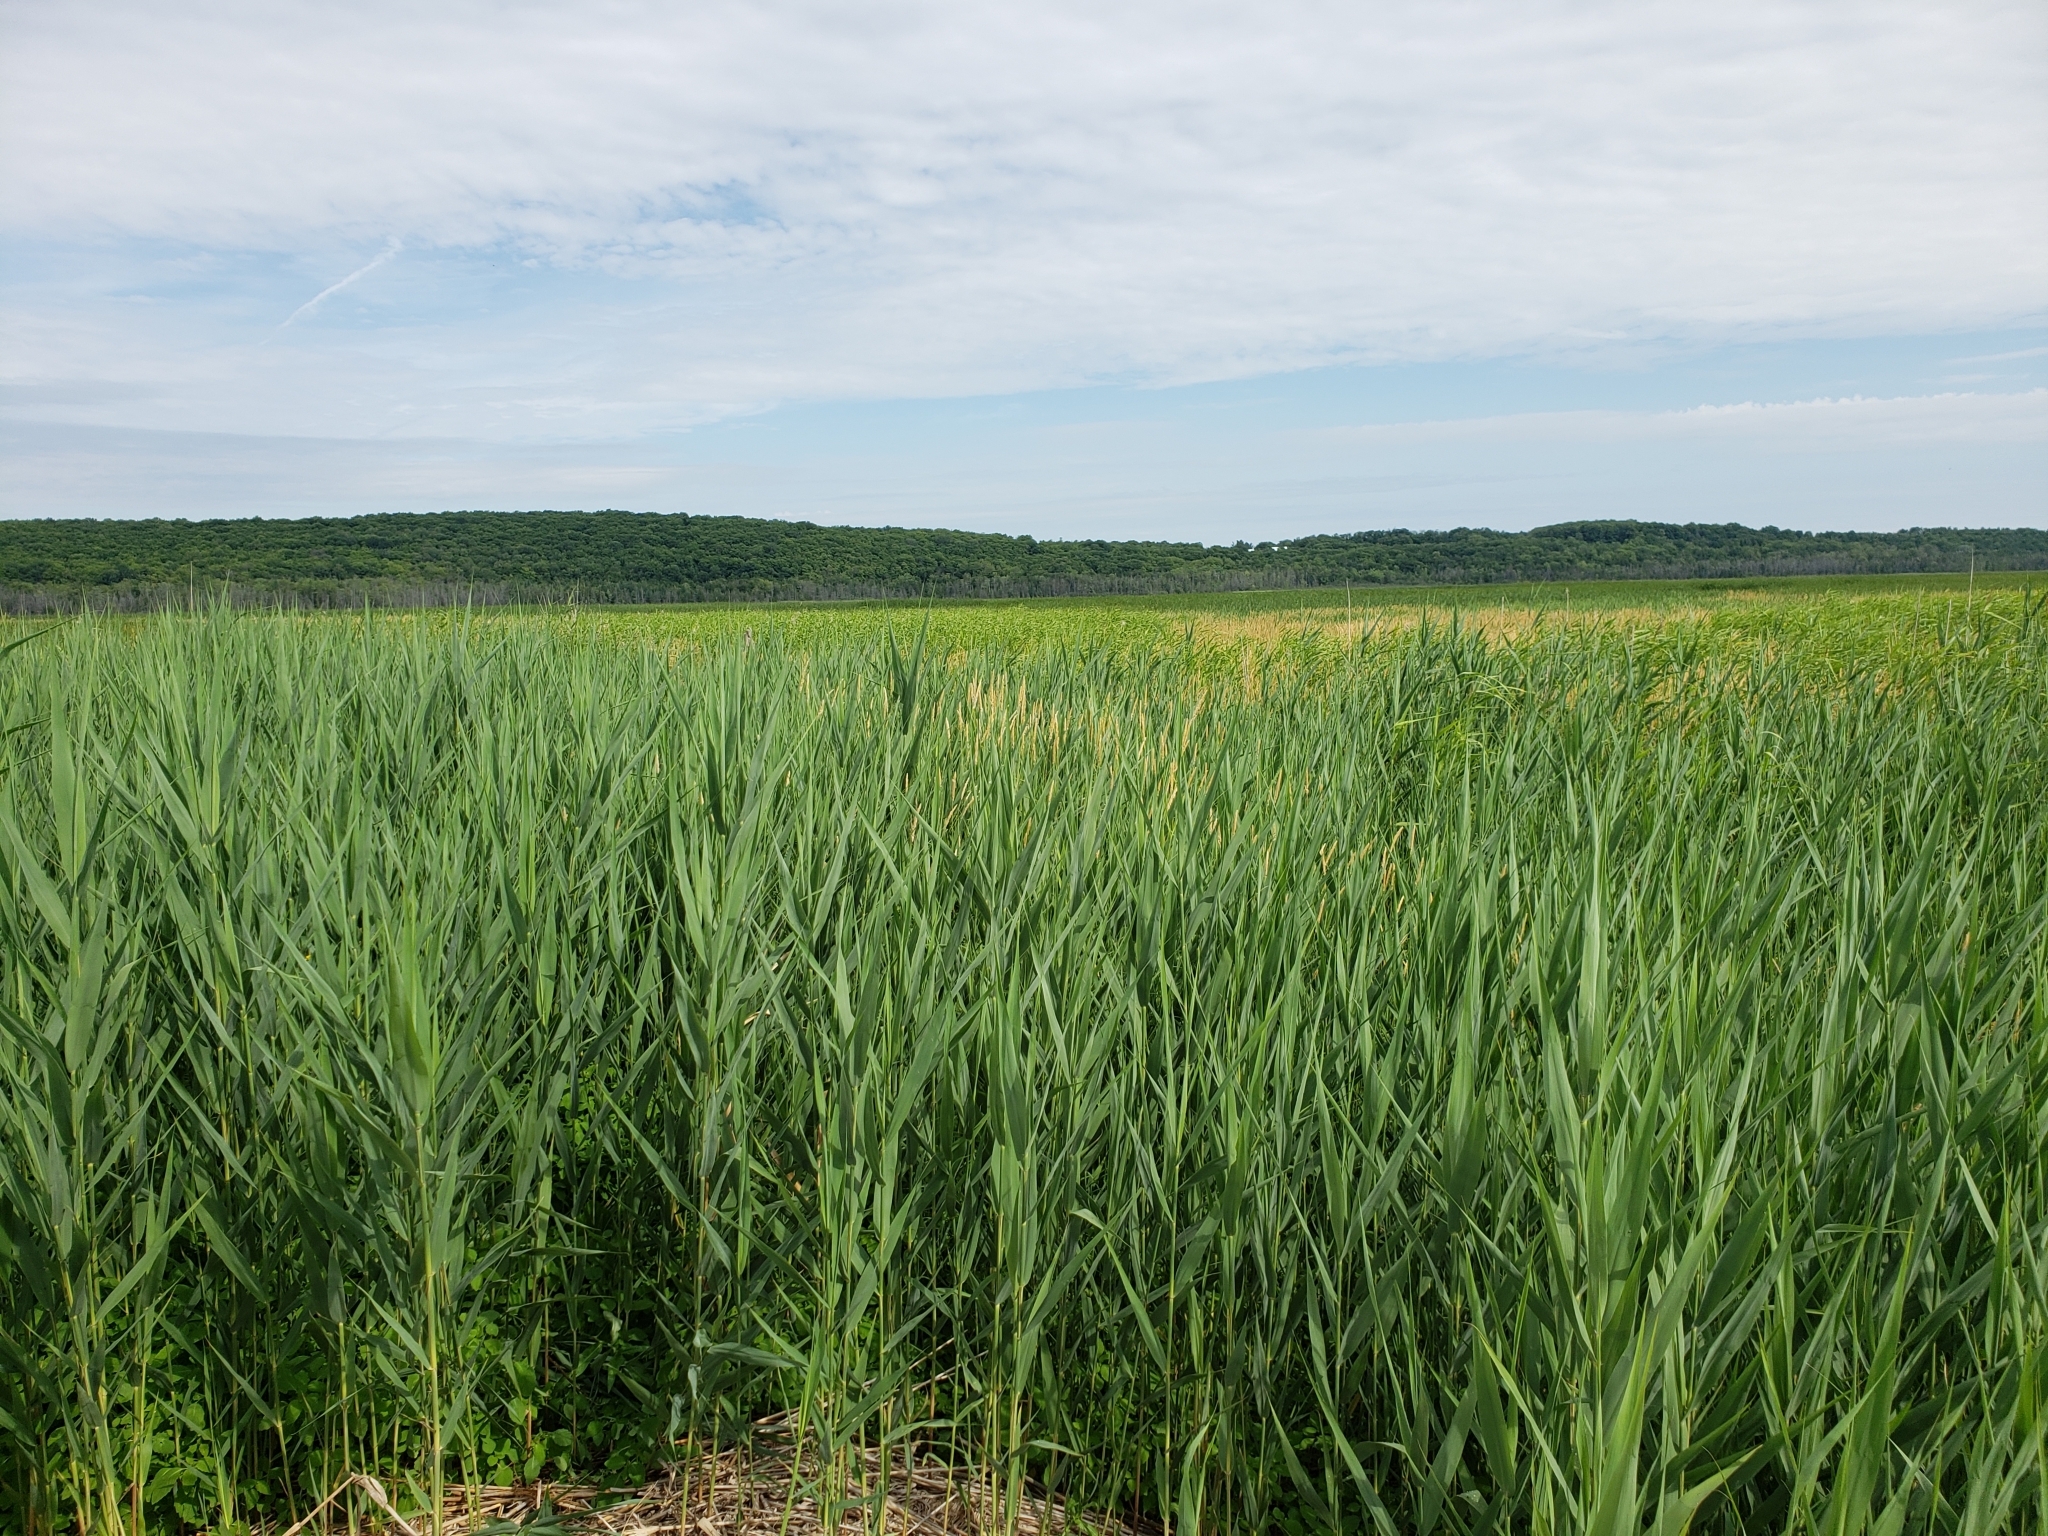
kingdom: Plantae
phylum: Tracheophyta
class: Liliopsida
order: Poales
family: Poaceae
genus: Phragmites
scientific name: Phragmites australis
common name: Common reed
